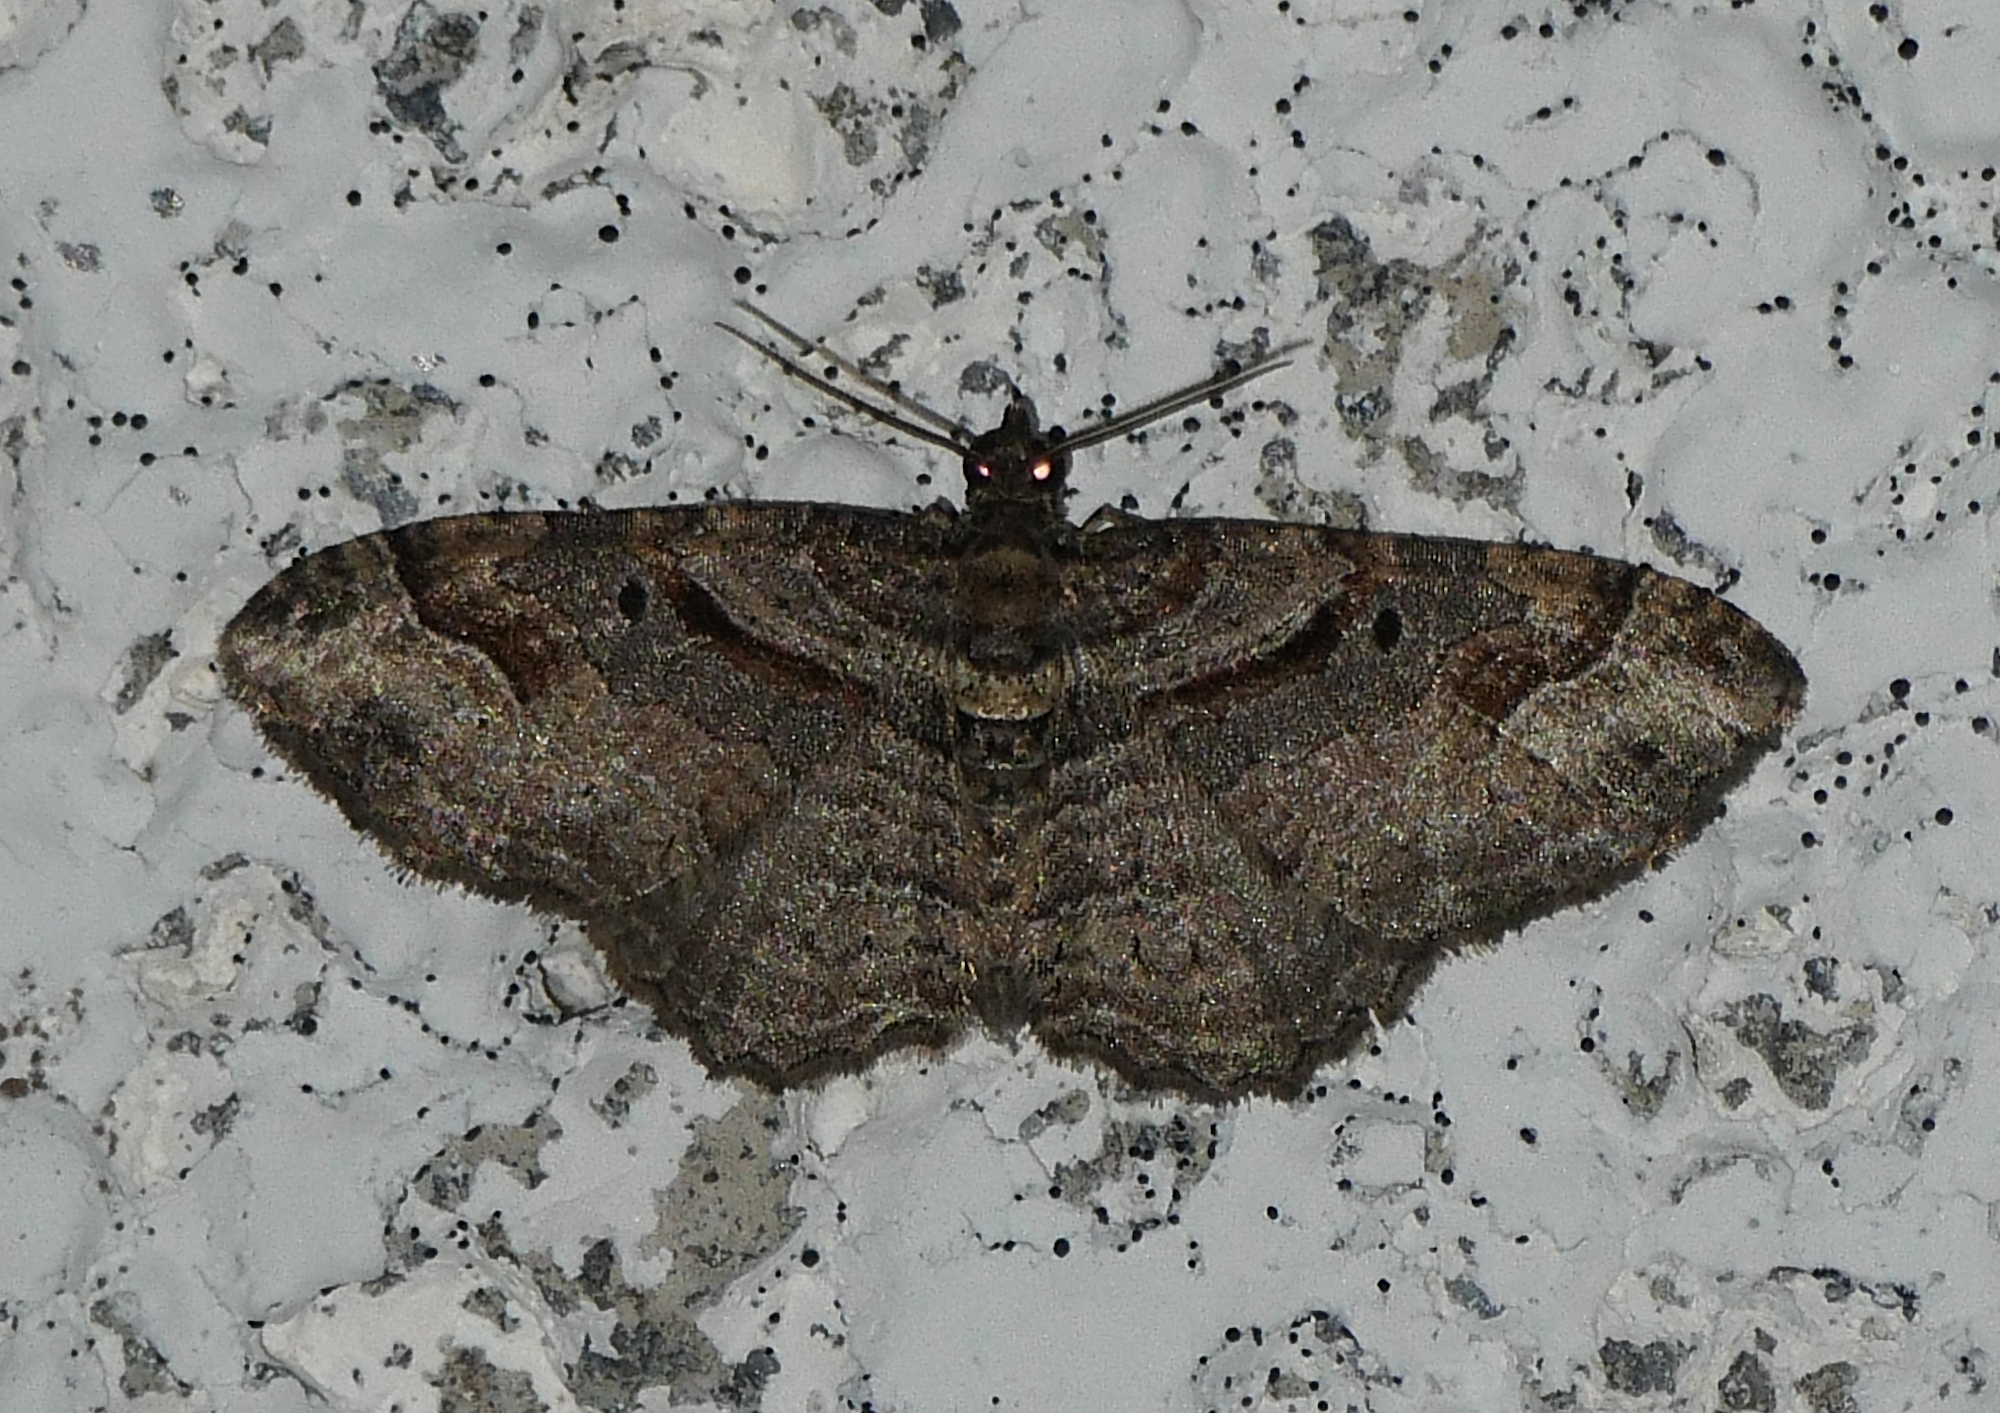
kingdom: Animalia
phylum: Arthropoda
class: Insecta
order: Lepidoptera
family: Geometridae
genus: Costaconvexa
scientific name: Costaconvexa centrostrigaria
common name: Bent-line carpet
